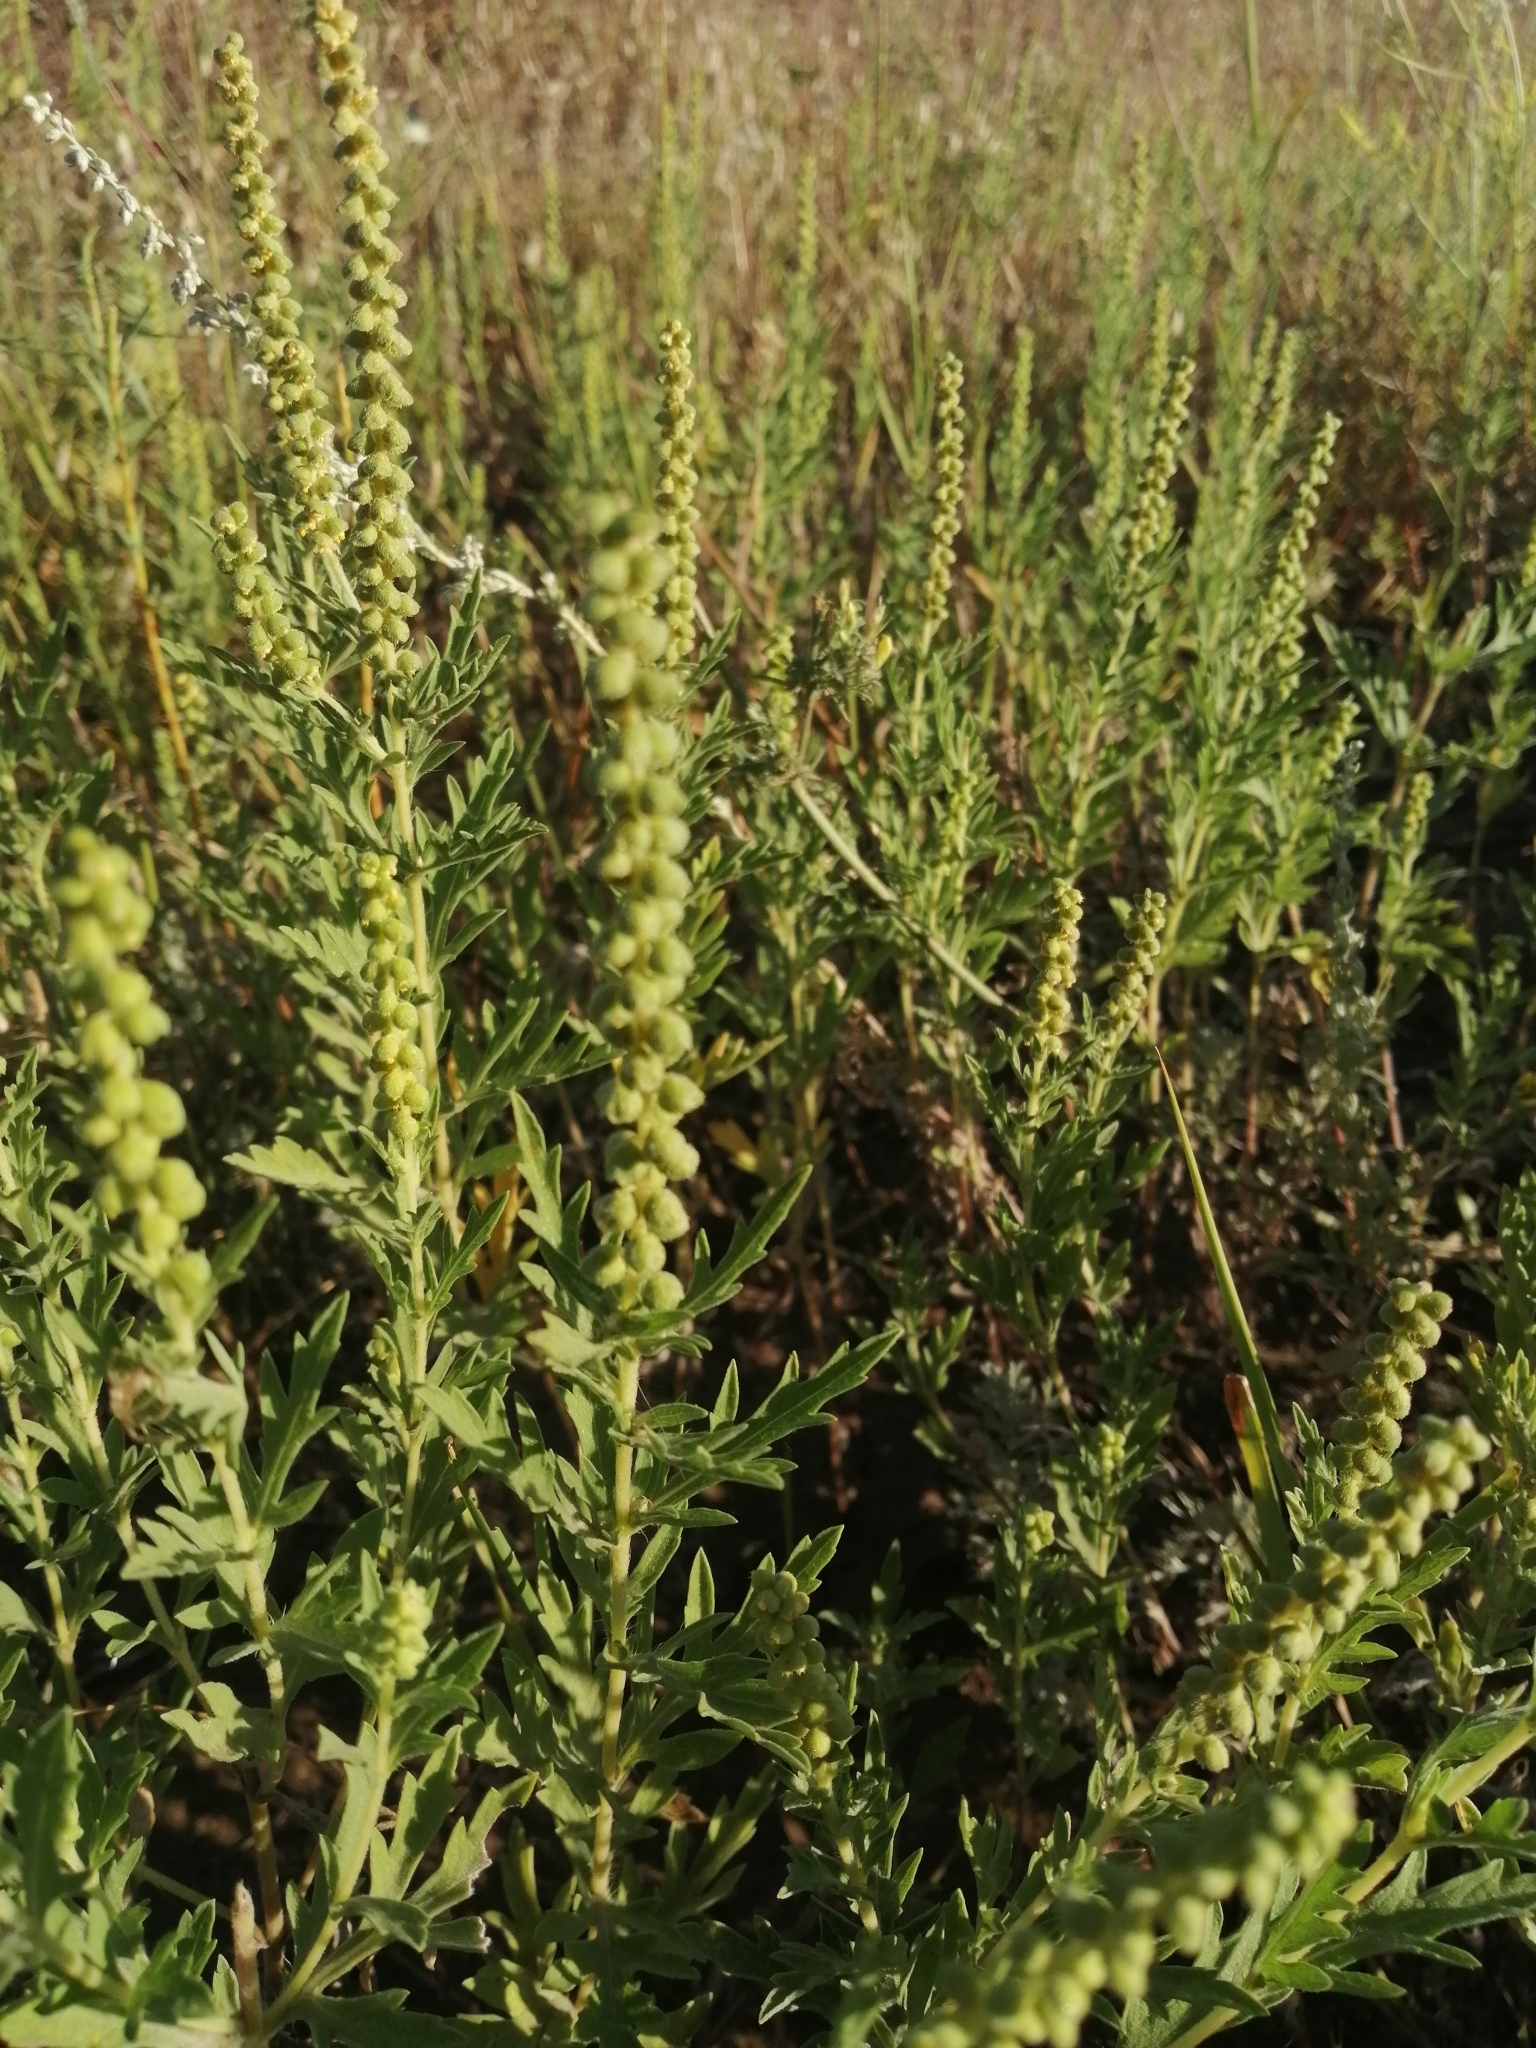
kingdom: Plantae
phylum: Tracheophyta
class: Magnoliopsida
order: Asterales
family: Asteraceae
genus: Ambrosia
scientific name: Ambrosia psilostachya
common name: Perennial ragweed
